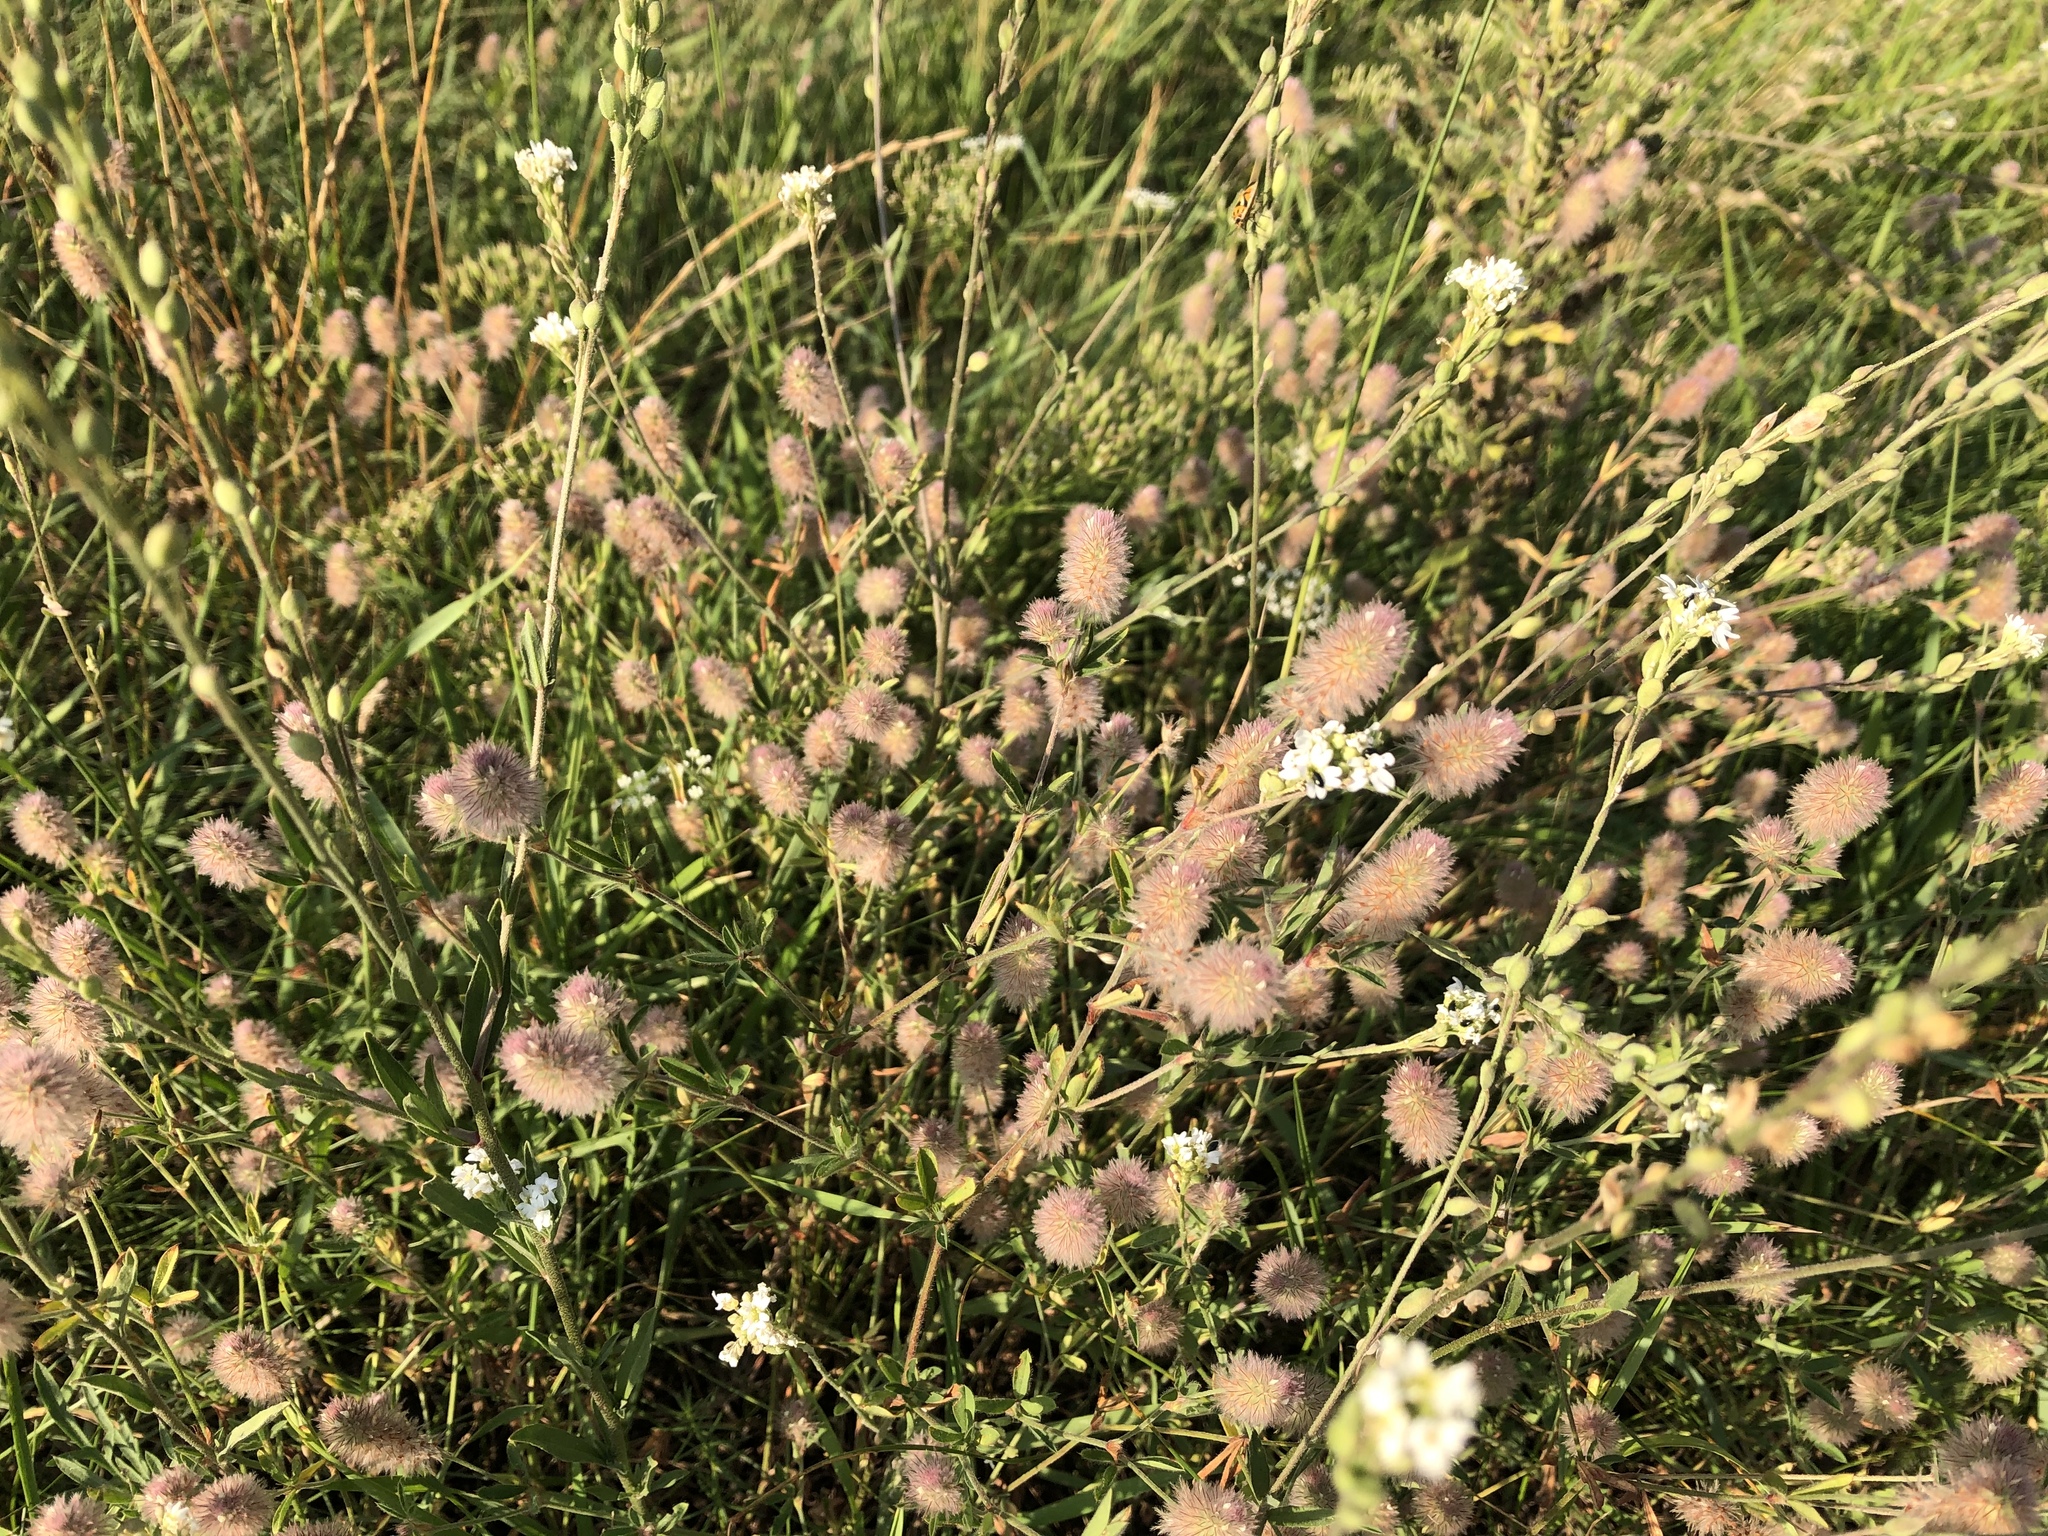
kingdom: Plantae
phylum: Tracheophyta
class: Magnoliopsida
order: Fabales
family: Fabaceae
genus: Trifolium
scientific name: Trifolium arvense
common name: Hare's-foot clover
